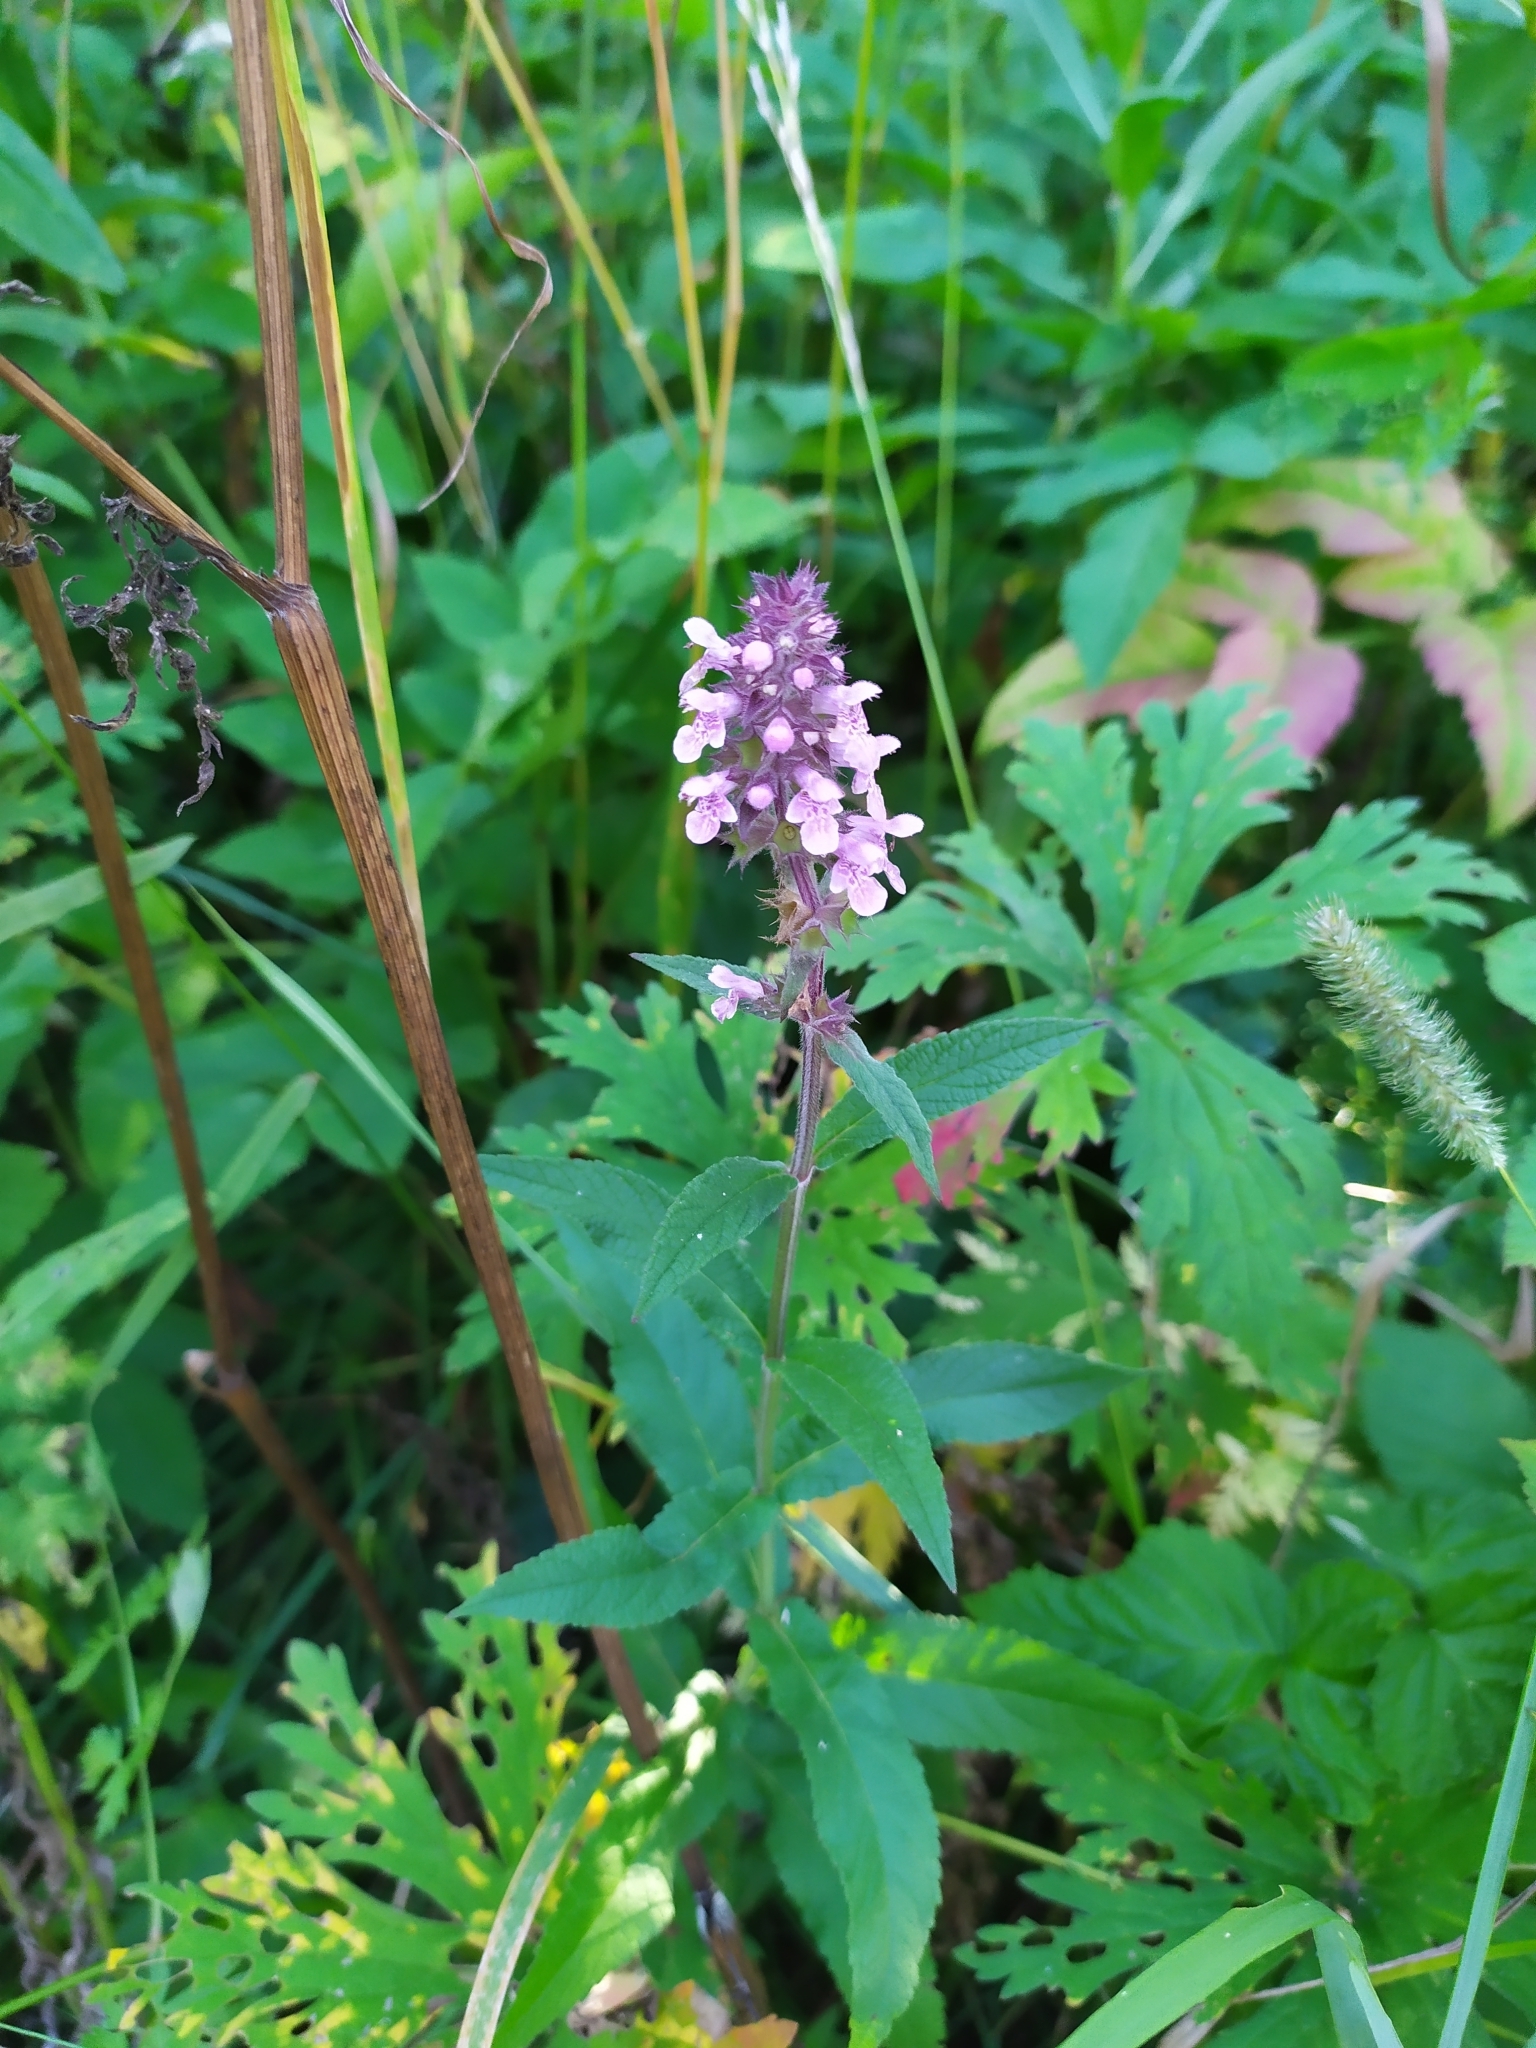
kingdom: Plantae
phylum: Tracheophyta
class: Magnoliopsida
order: Lamiales
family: Lamiaceae
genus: Stachys
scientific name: Stachys palustris
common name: Marsh woundwort
